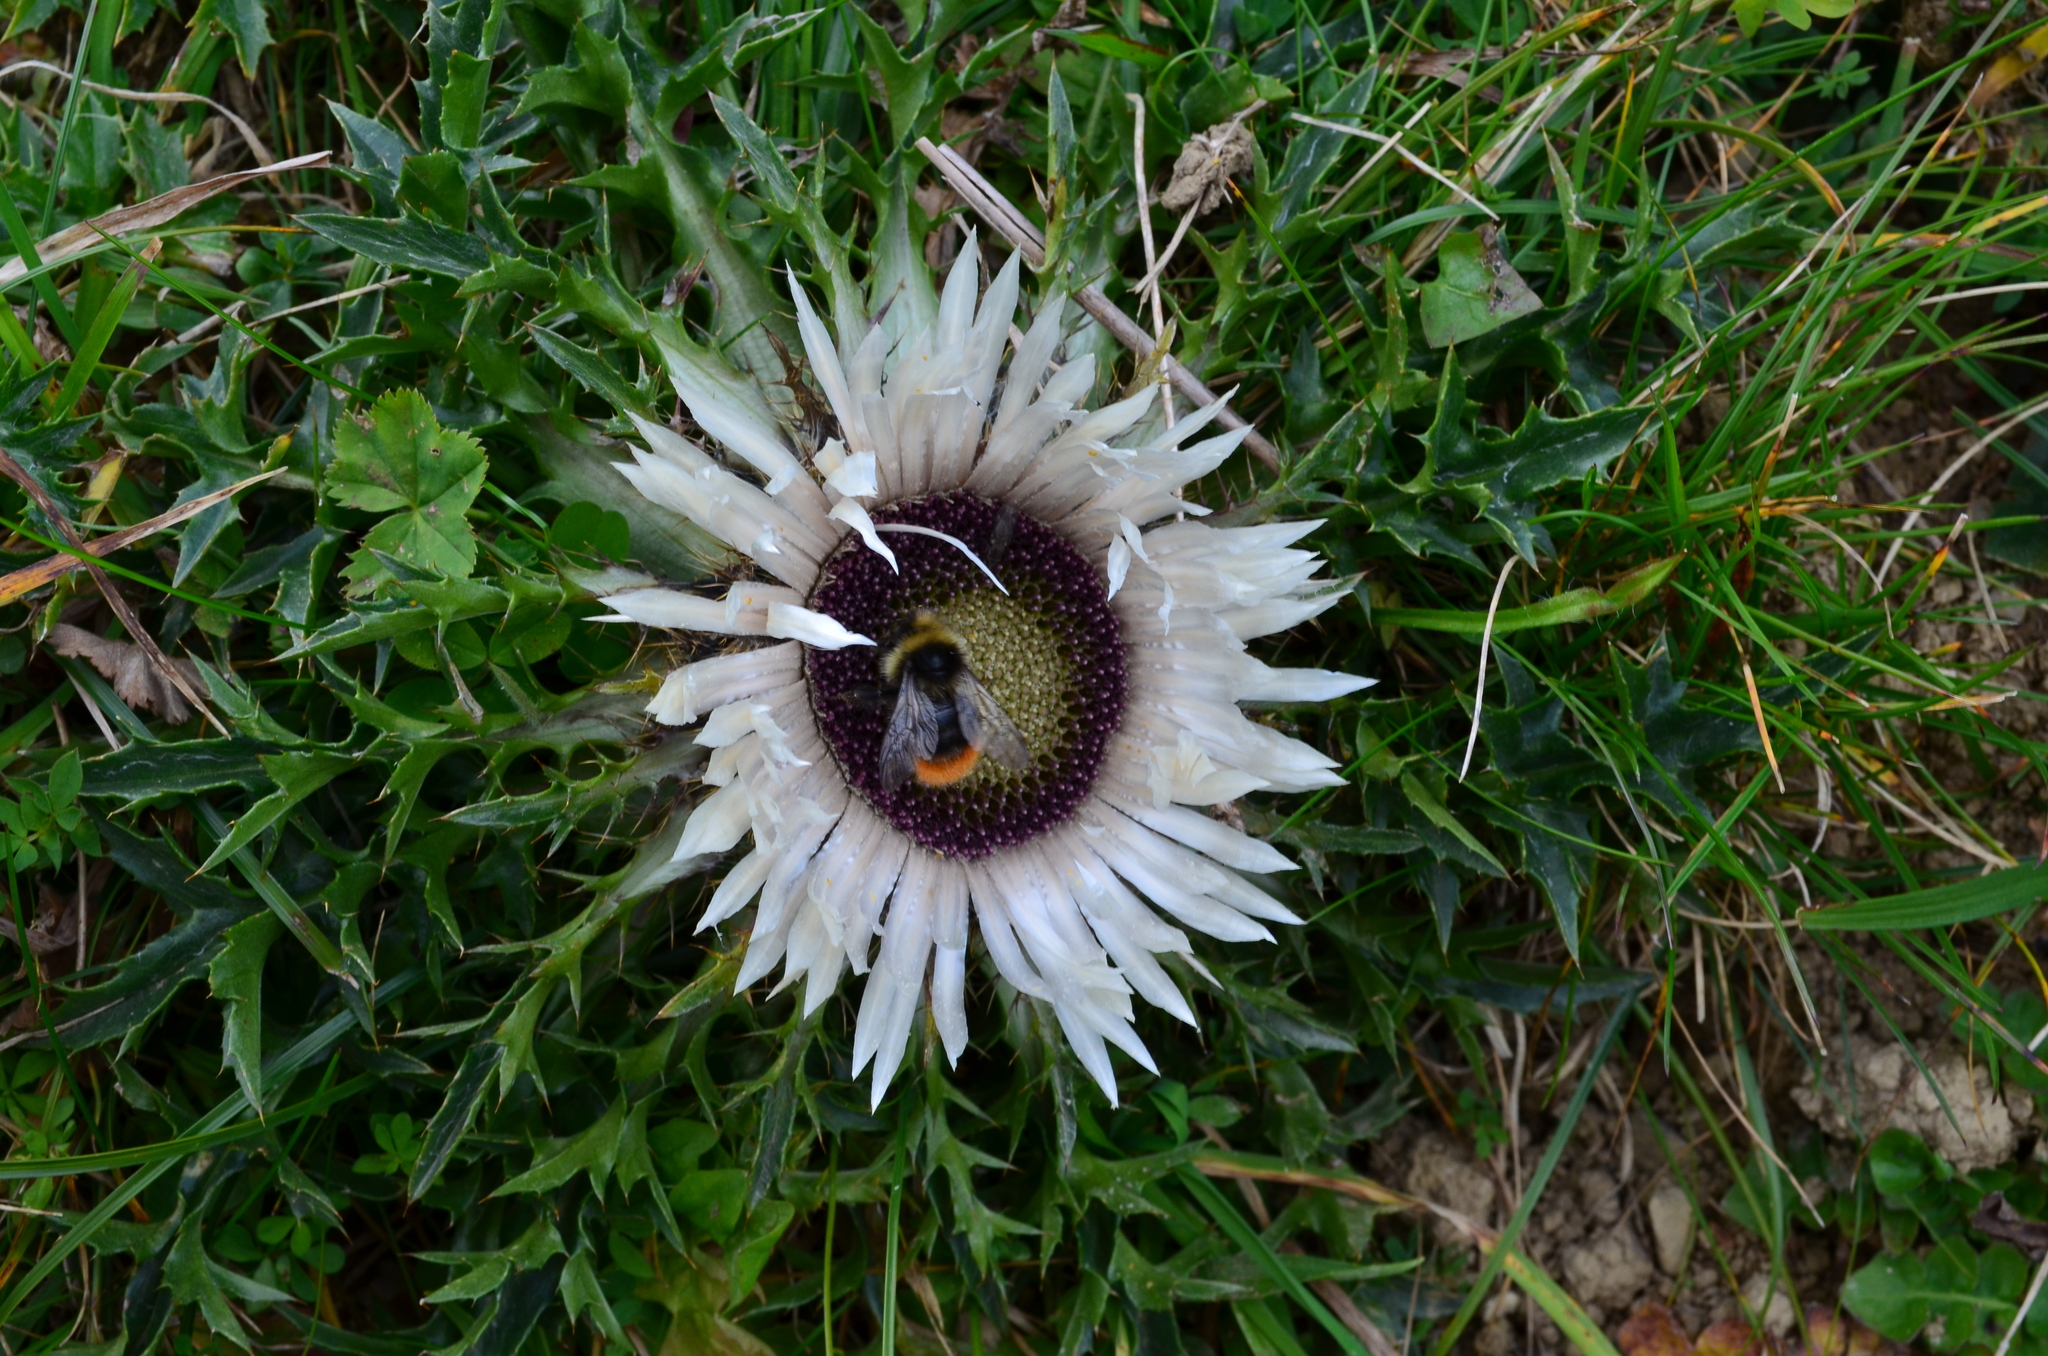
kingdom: Plantae
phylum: Tracheophyta
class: Magnoliopsida
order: Asterales
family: Asteraceae
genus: Carlina
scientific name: Carlina acaulis
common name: Stemless carline thistle
